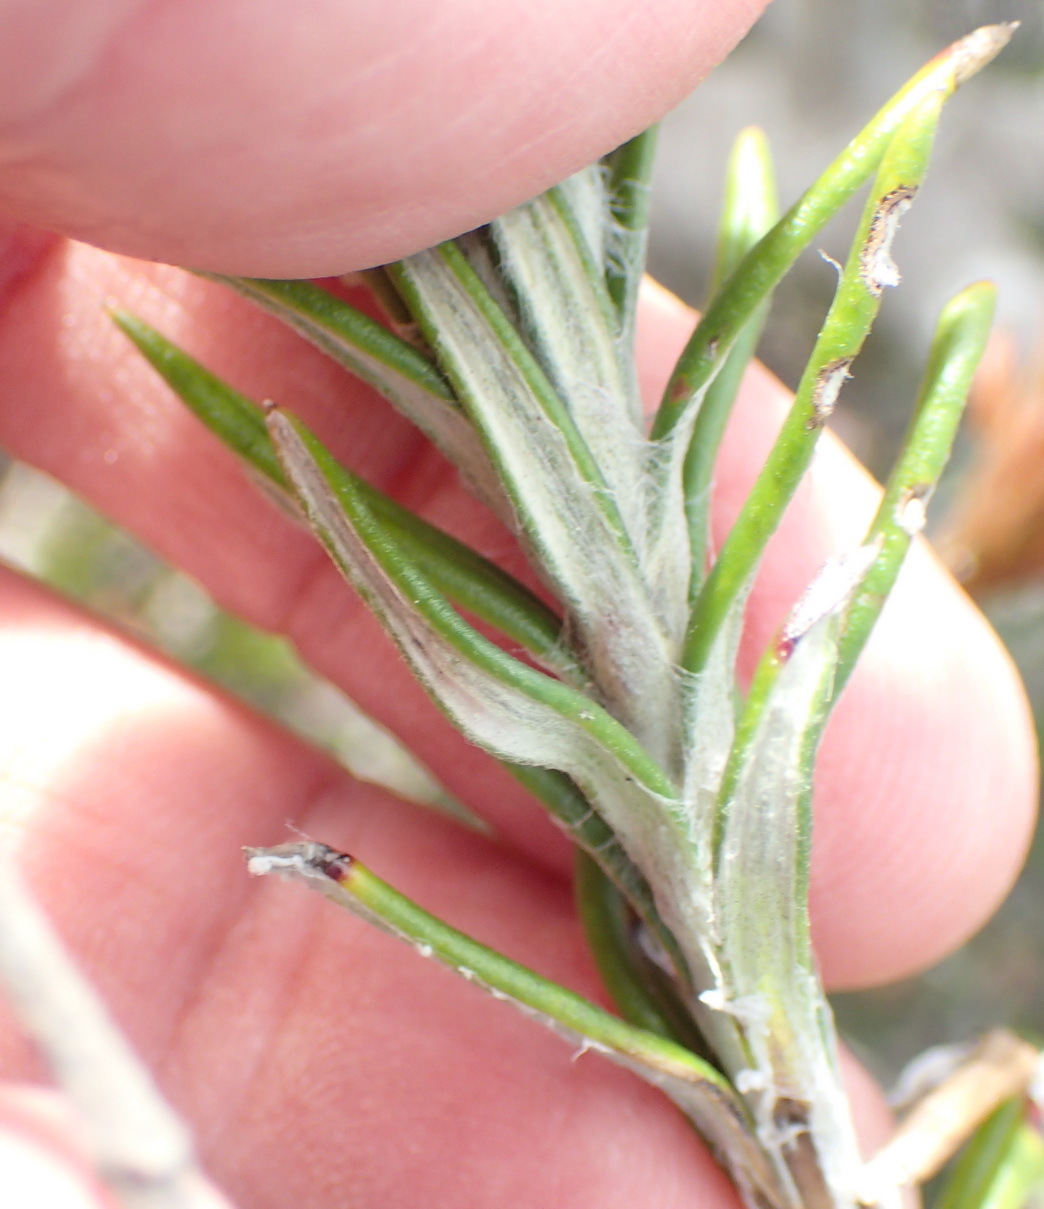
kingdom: Plantae
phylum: Tracheophyta
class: Magnoliopsida
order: Asterales
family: Asteraceae
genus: Anaxeton
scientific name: Anaxeton laeve
